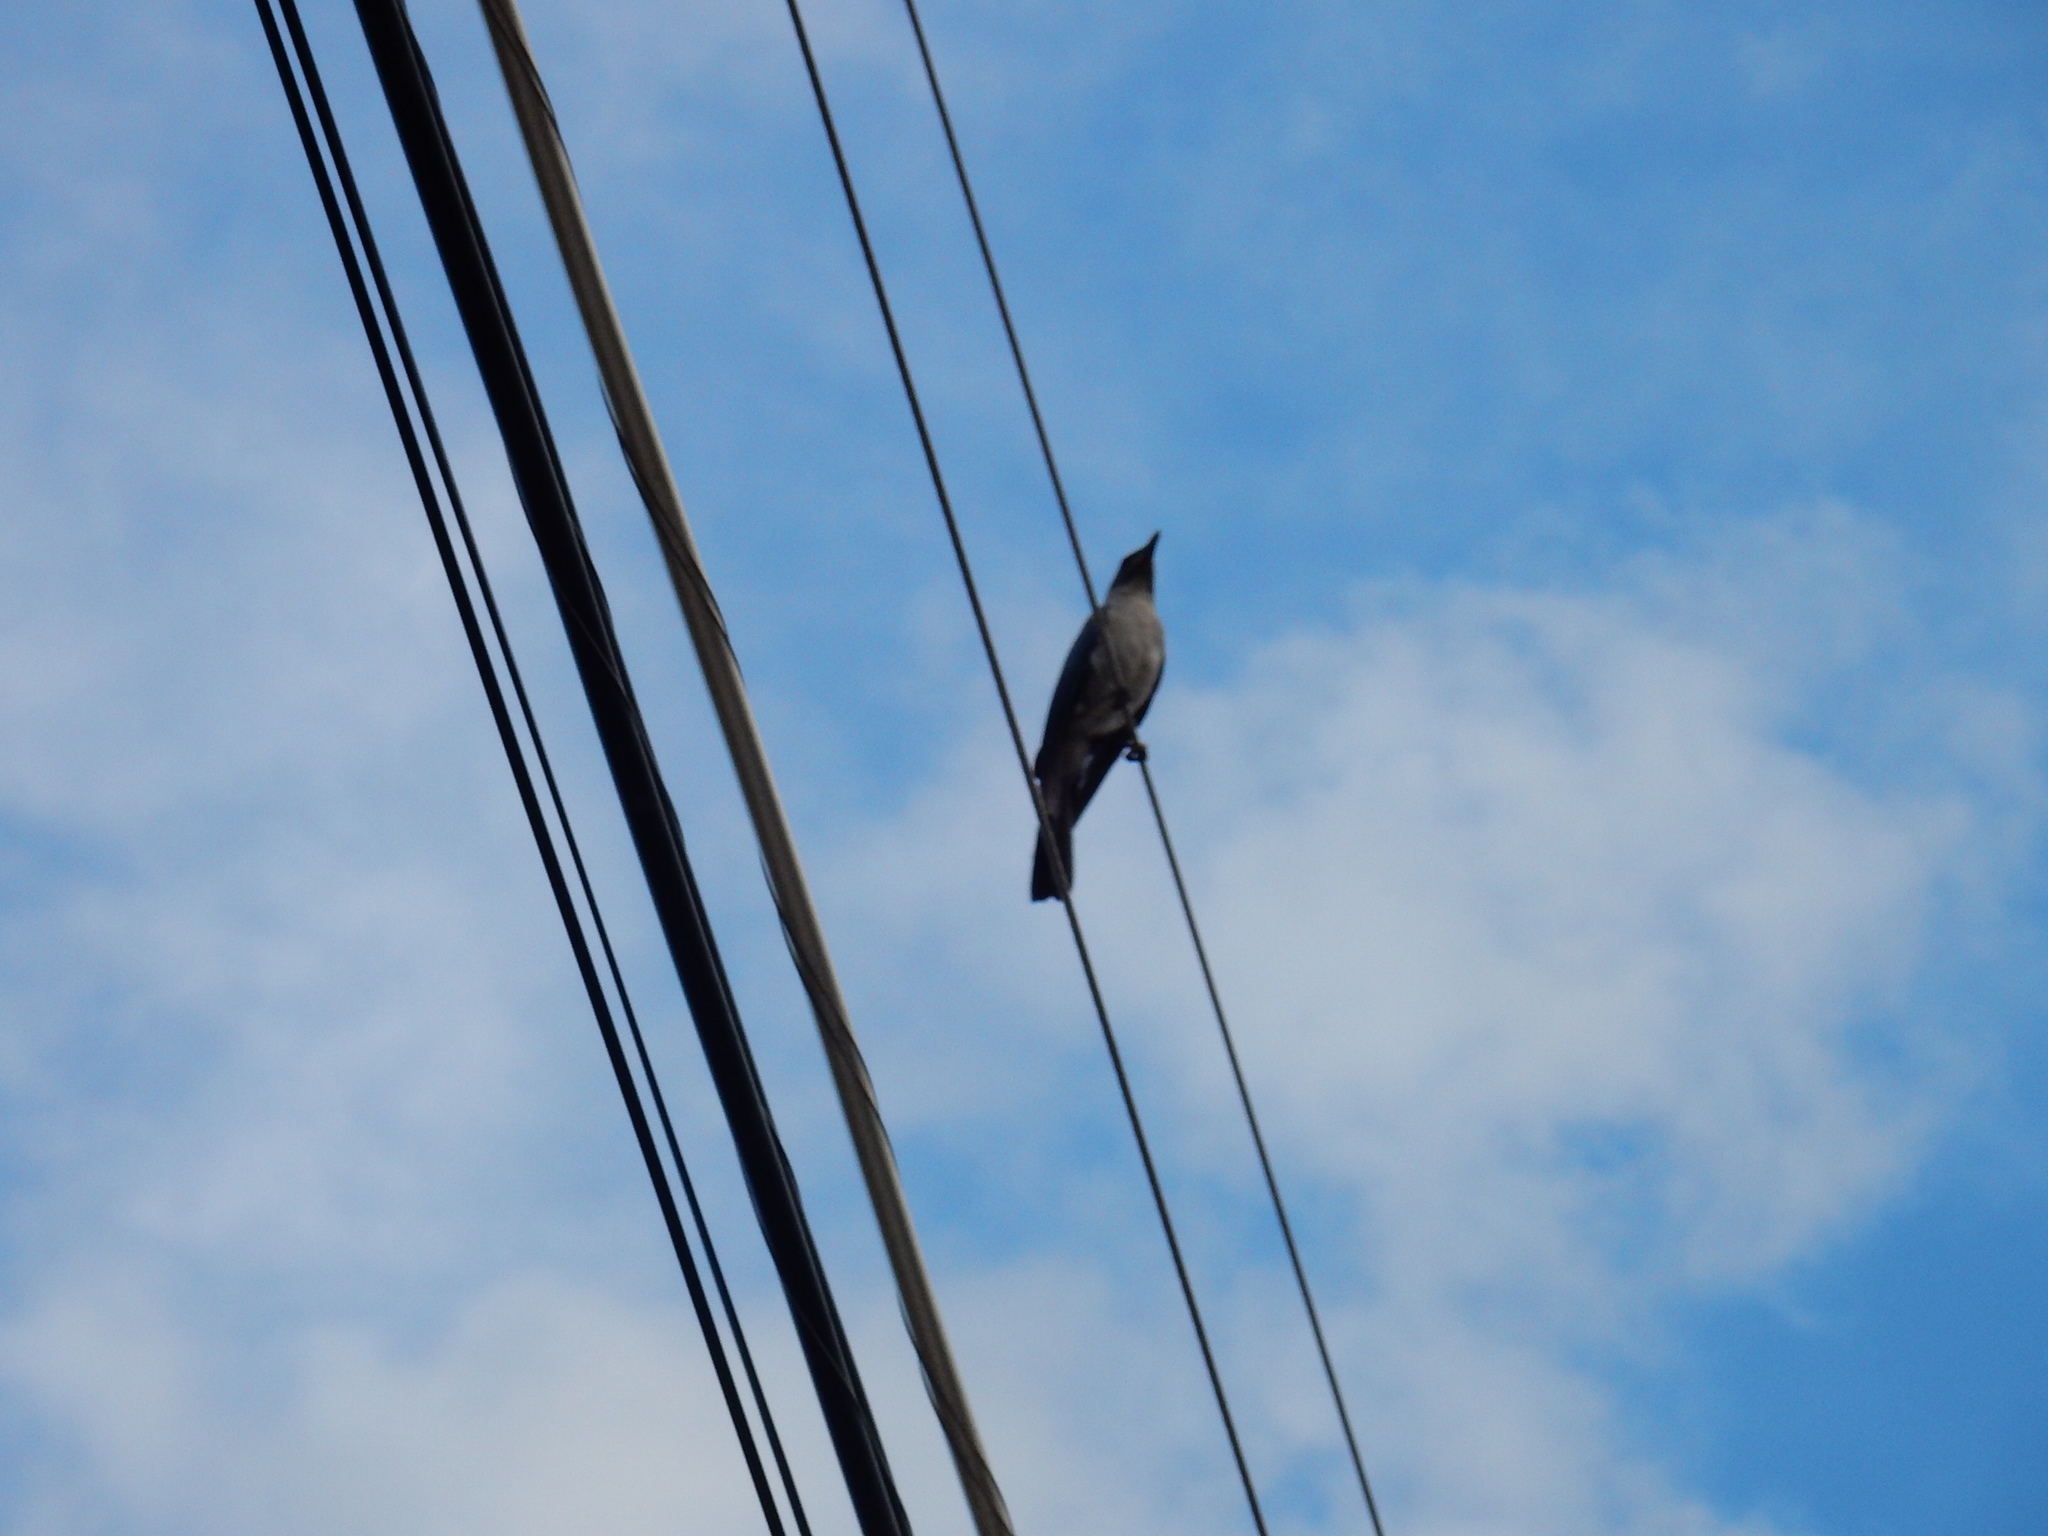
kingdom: Animalia
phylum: Chordata
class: Aves
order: Passeriformes
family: Corvidae
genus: Aphelocoma
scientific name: Aphelocoma wollweberi
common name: Mexican jay
